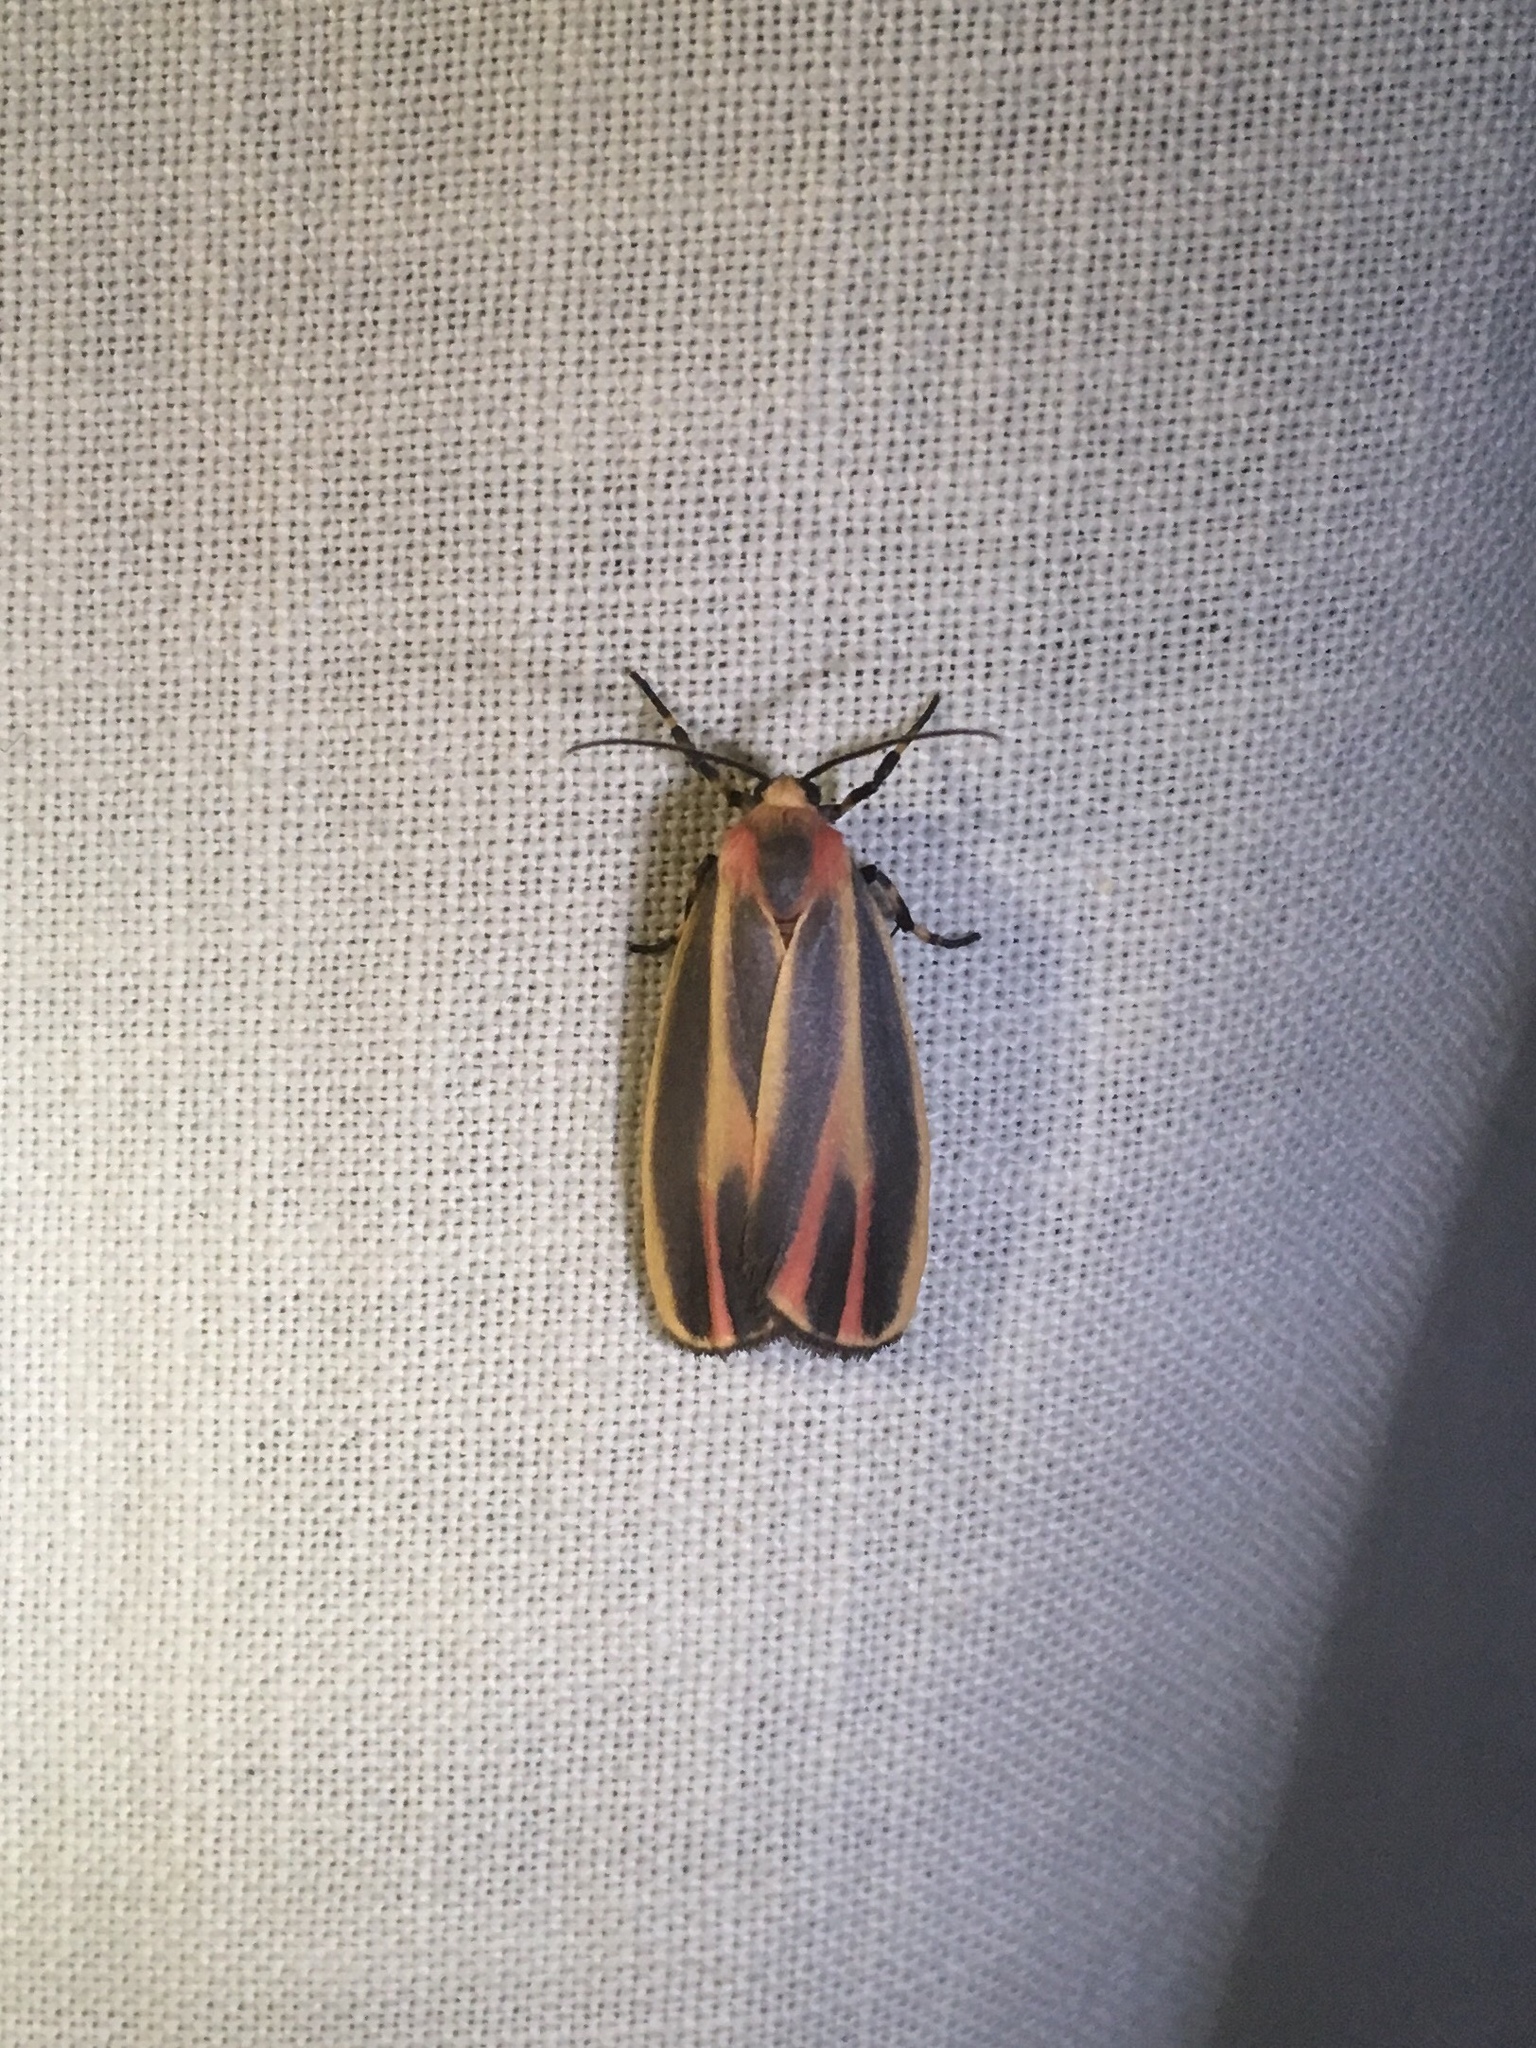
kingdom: Animalia
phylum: Arthropoda
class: Insecta
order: Lepidoptera
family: Erebidae
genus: Hypoprepia
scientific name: Hypoprepia fucosa
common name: Painted lichen moth
